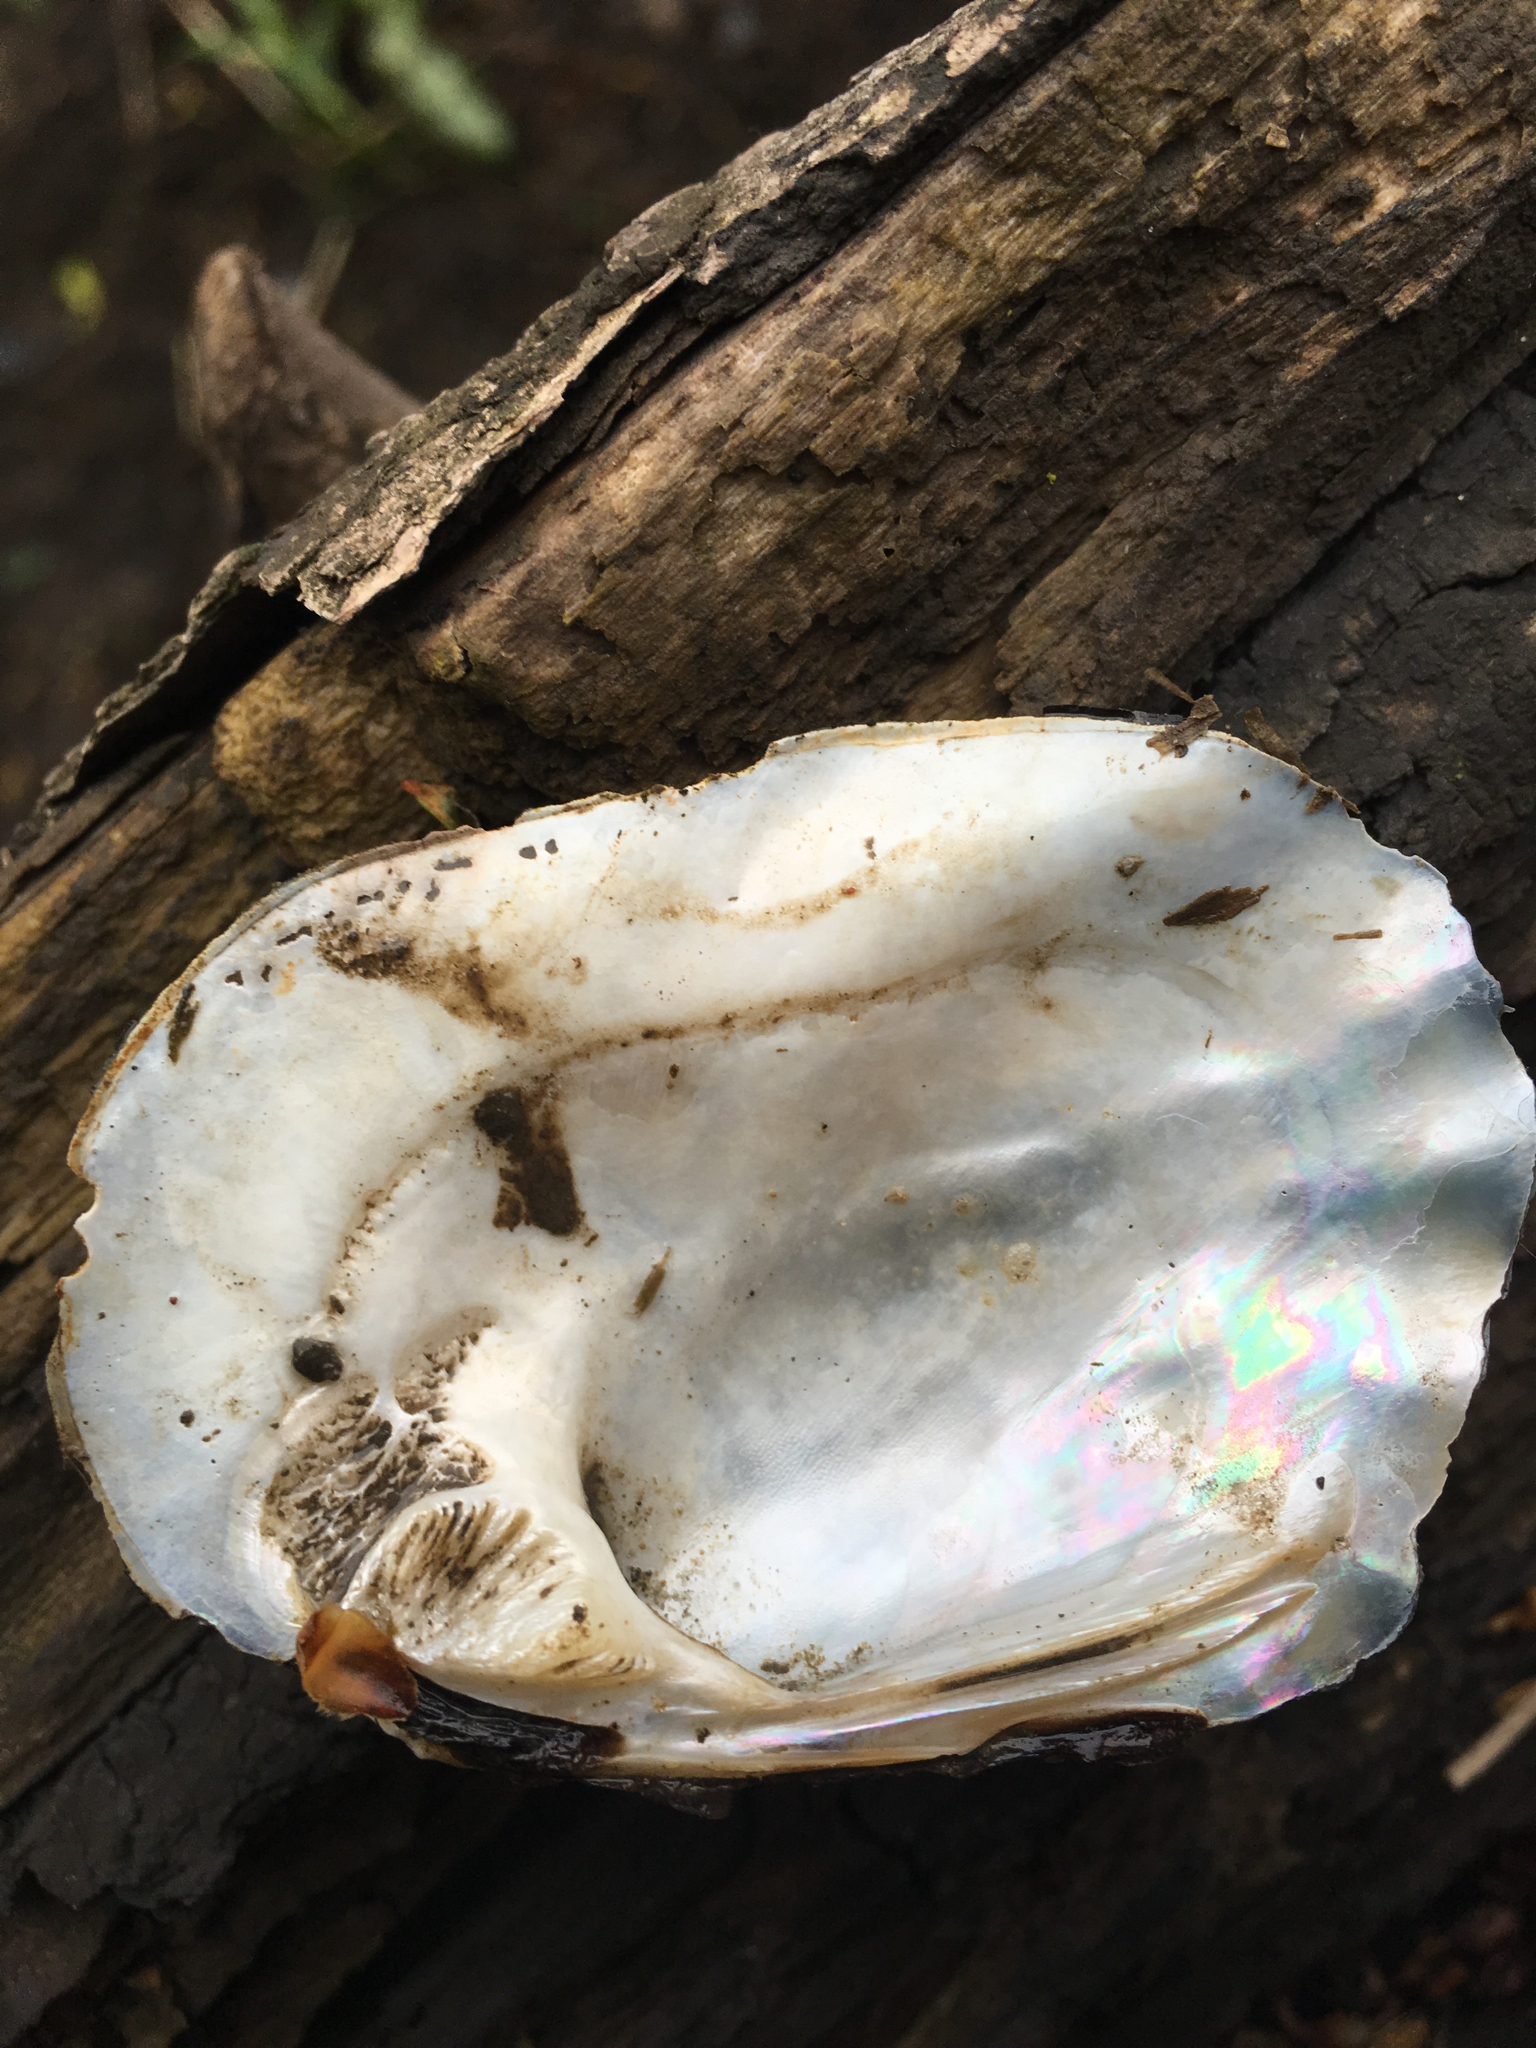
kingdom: Animalia
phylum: Mollusca
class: Bivalvia
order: Unionida
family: Unionidae
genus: Amblema
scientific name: Amblema plicata
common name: Threeridge
